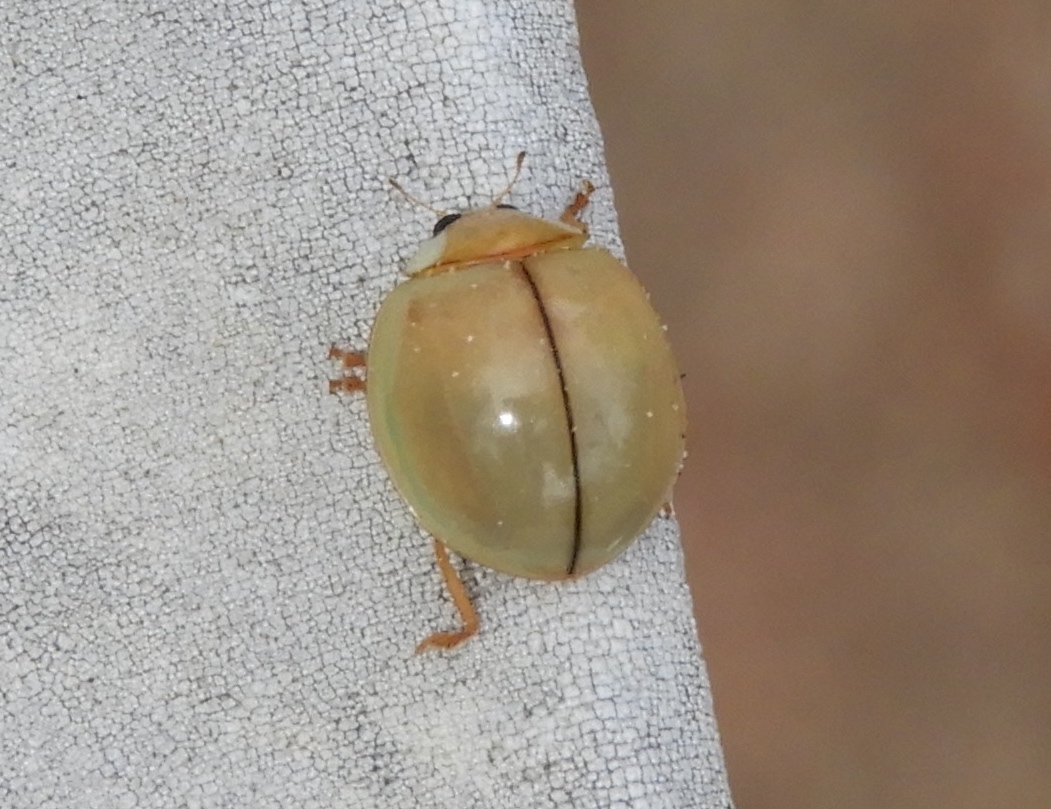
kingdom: Animalia
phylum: Arthropoda
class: Insecta
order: Coleoptera
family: Coccinellidae
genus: Paraneda
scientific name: Paraneda
